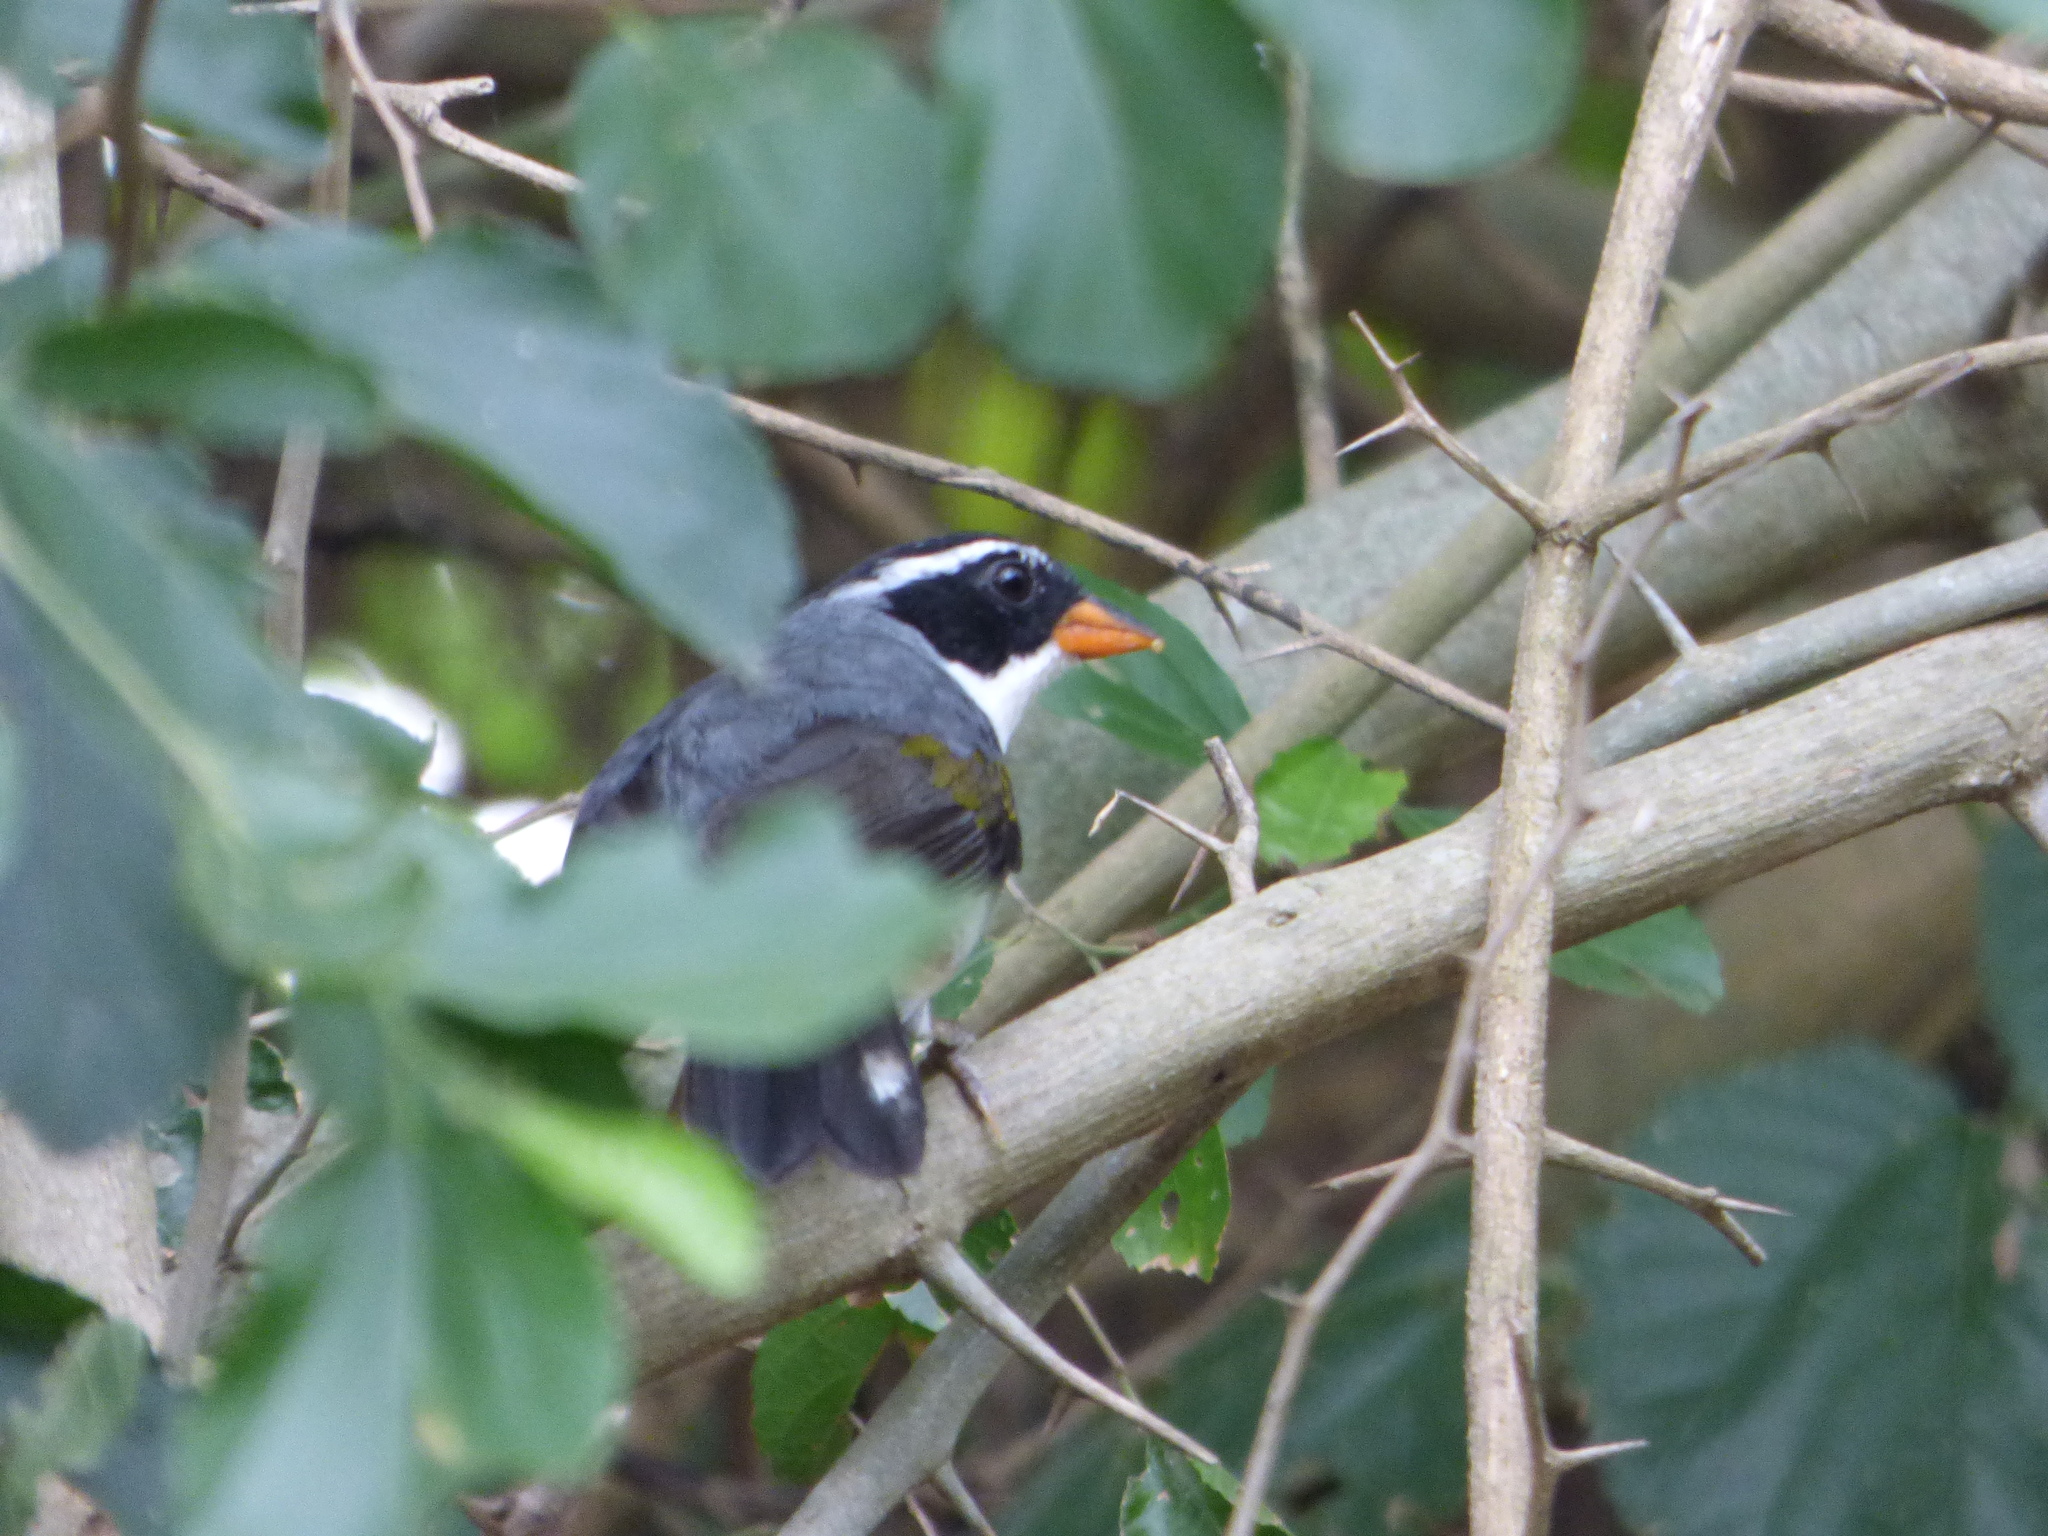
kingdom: Animalia
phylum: Chordata
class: Aves
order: Passeriformes
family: Passerellidae
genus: Arremon
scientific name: Arremon flavirostris
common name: Saffron-billed sparrow
